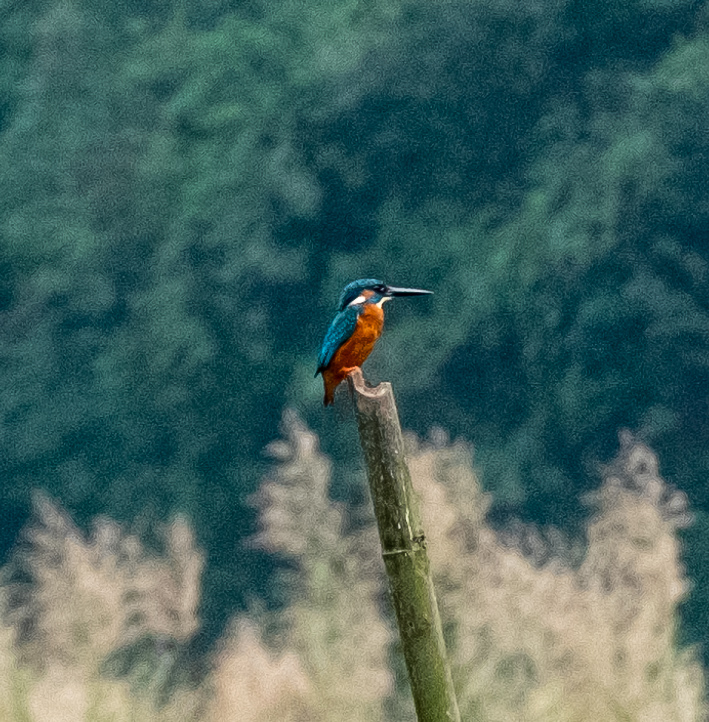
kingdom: Animalia
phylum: Chordata
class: Aves
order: Coraciiformes
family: Alcedinidae
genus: Alcedo
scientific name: Alcedo atthis
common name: Common kingfisher
